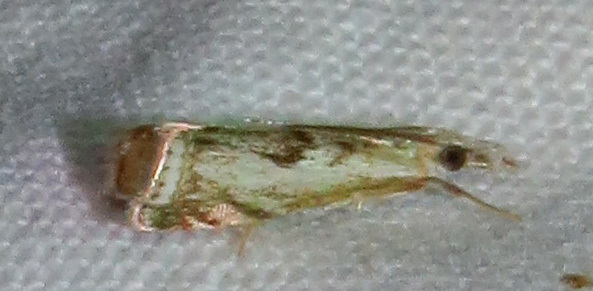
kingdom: Animalia
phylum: Arthropoda
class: Insecta
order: Lepidoptera
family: Crambidae
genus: Microcrambus
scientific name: Microcrambus kimballi
